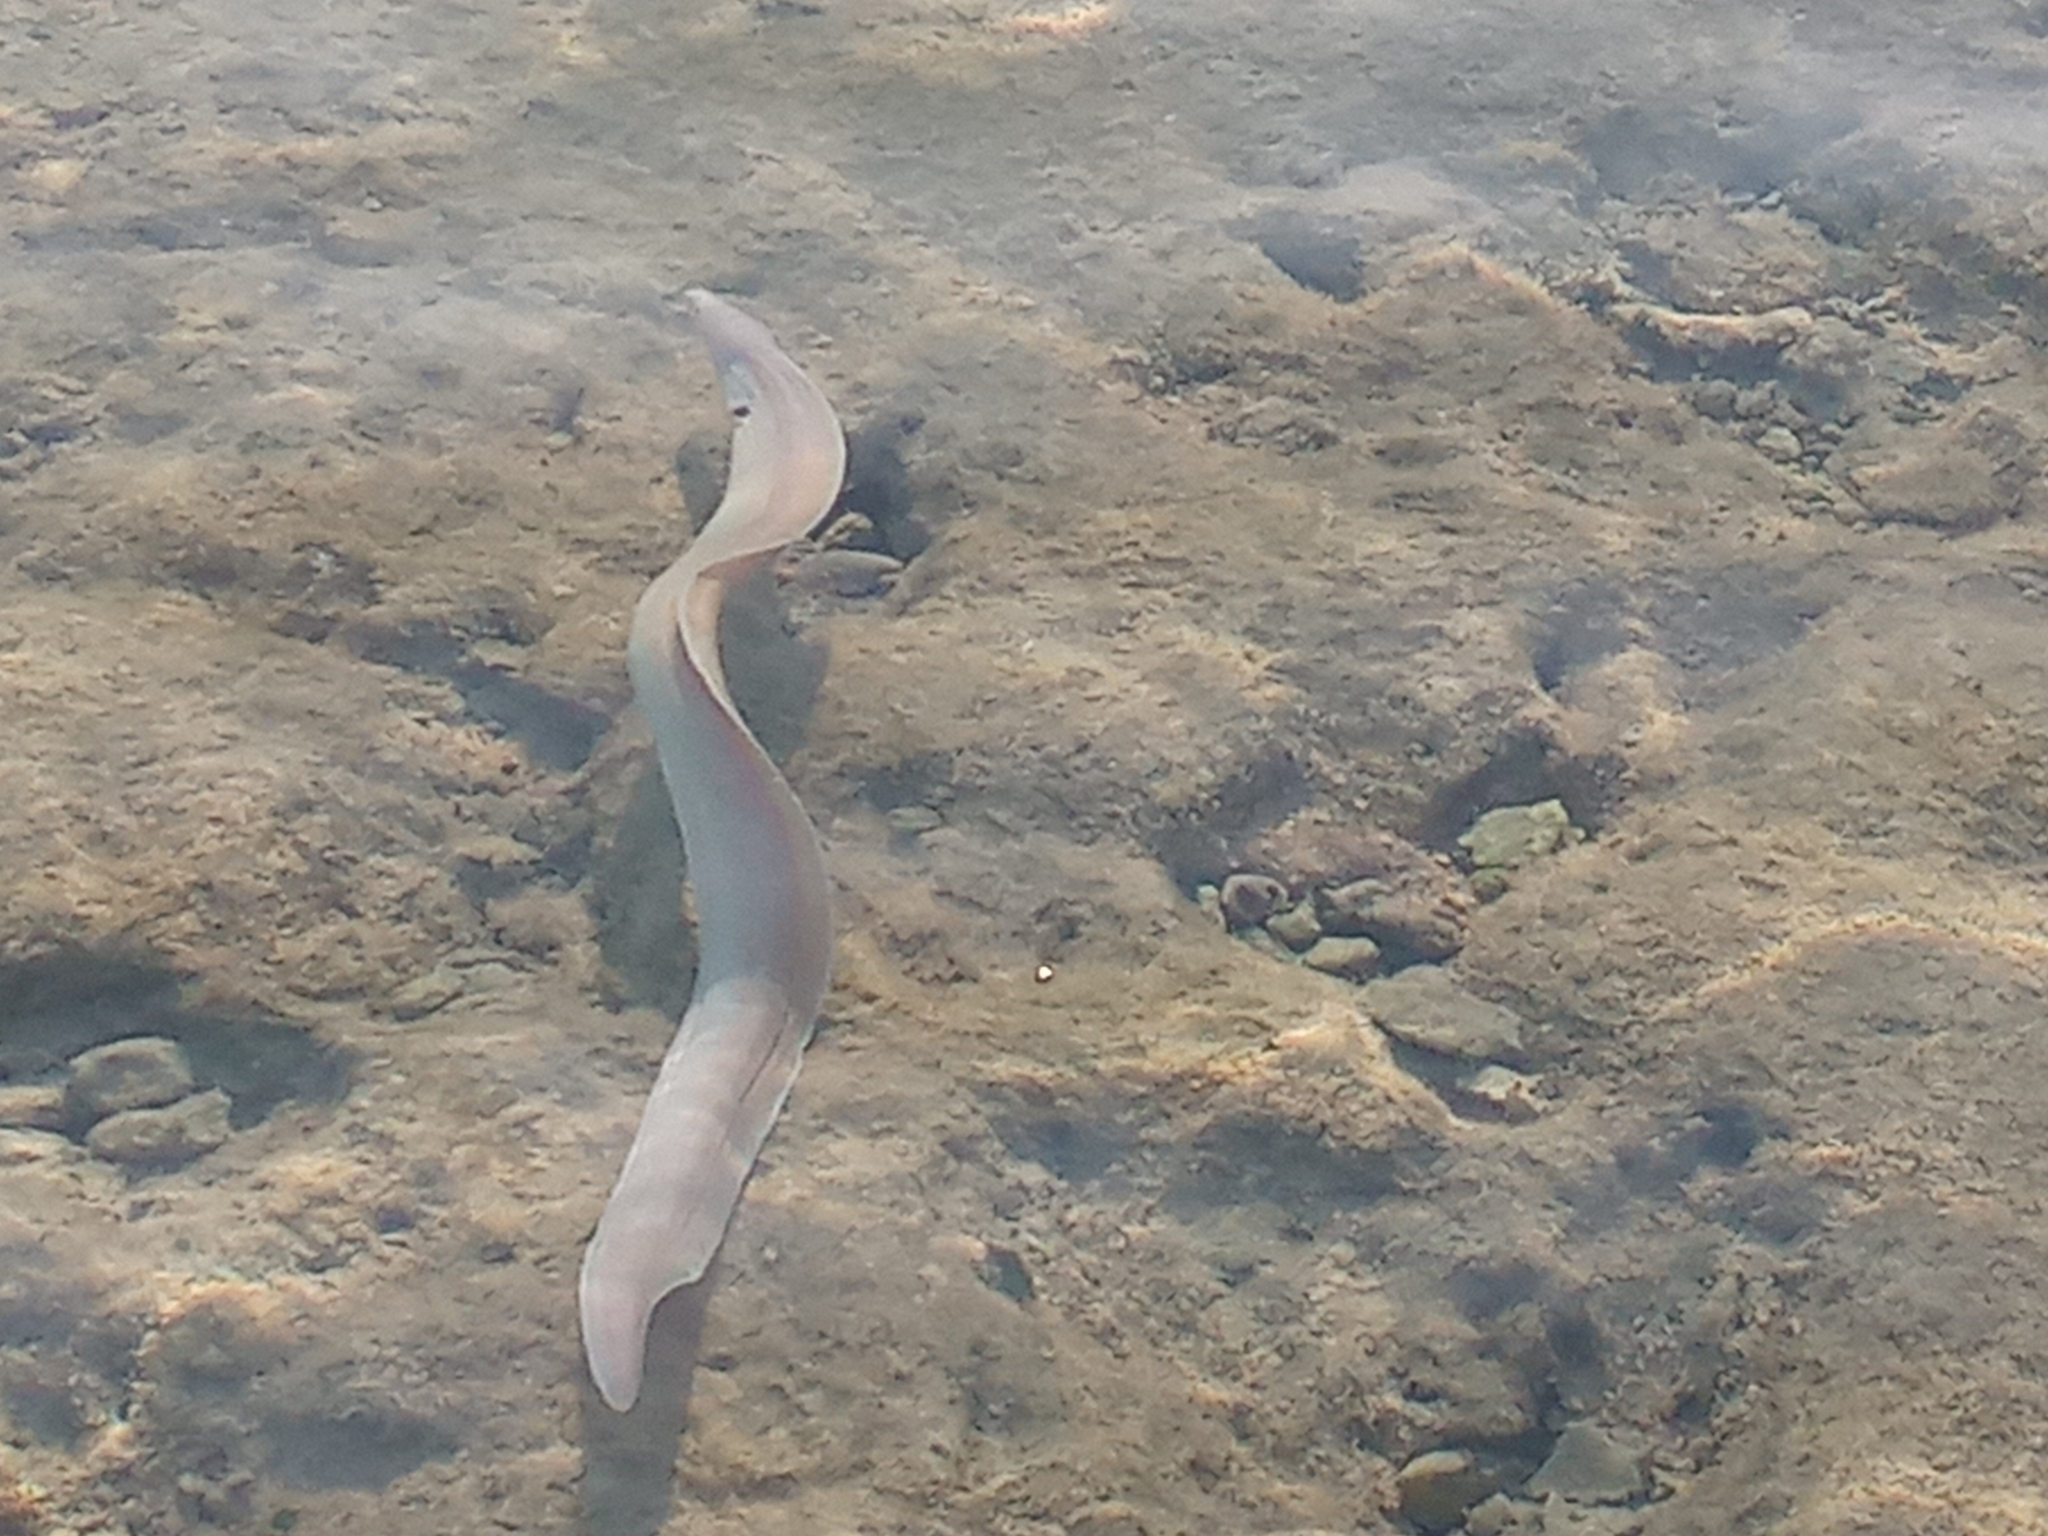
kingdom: Animalia
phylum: Chordata
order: Anguilliformes
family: Muraenidae
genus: Gymnothorax
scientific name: Gymnothorax griseus
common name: Geometric moray
